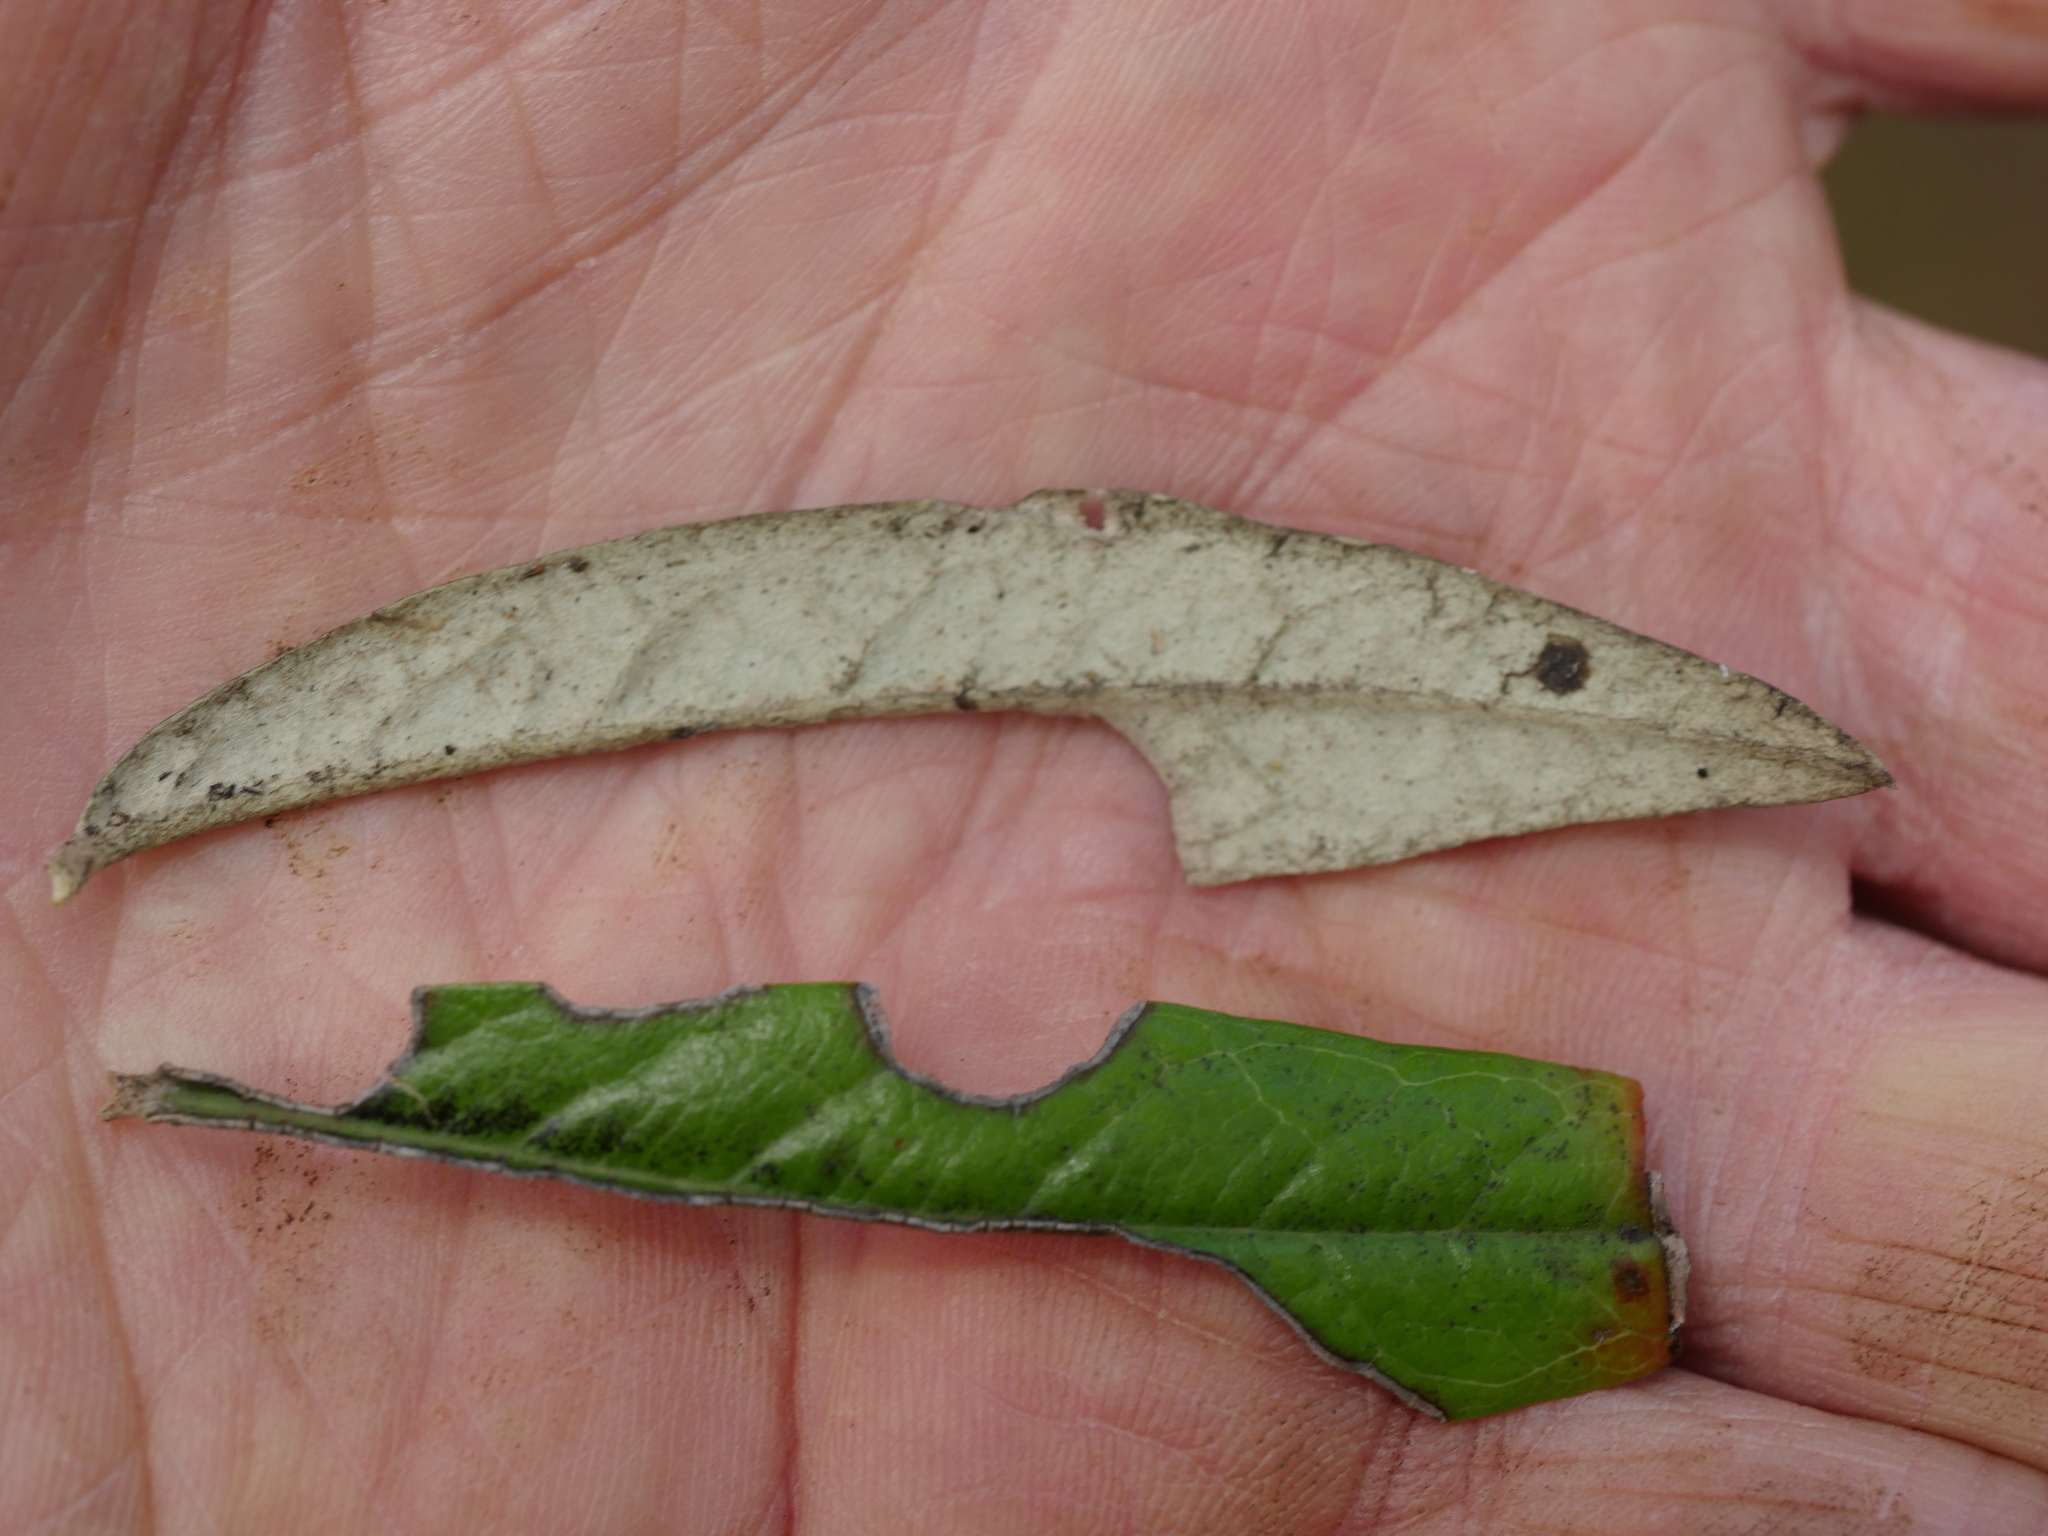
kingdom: Plantae
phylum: Tracheophyta
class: Magnoliopsida
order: Asterales
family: Argophyllaceae
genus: Corokia
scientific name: Corokia buddleioides
